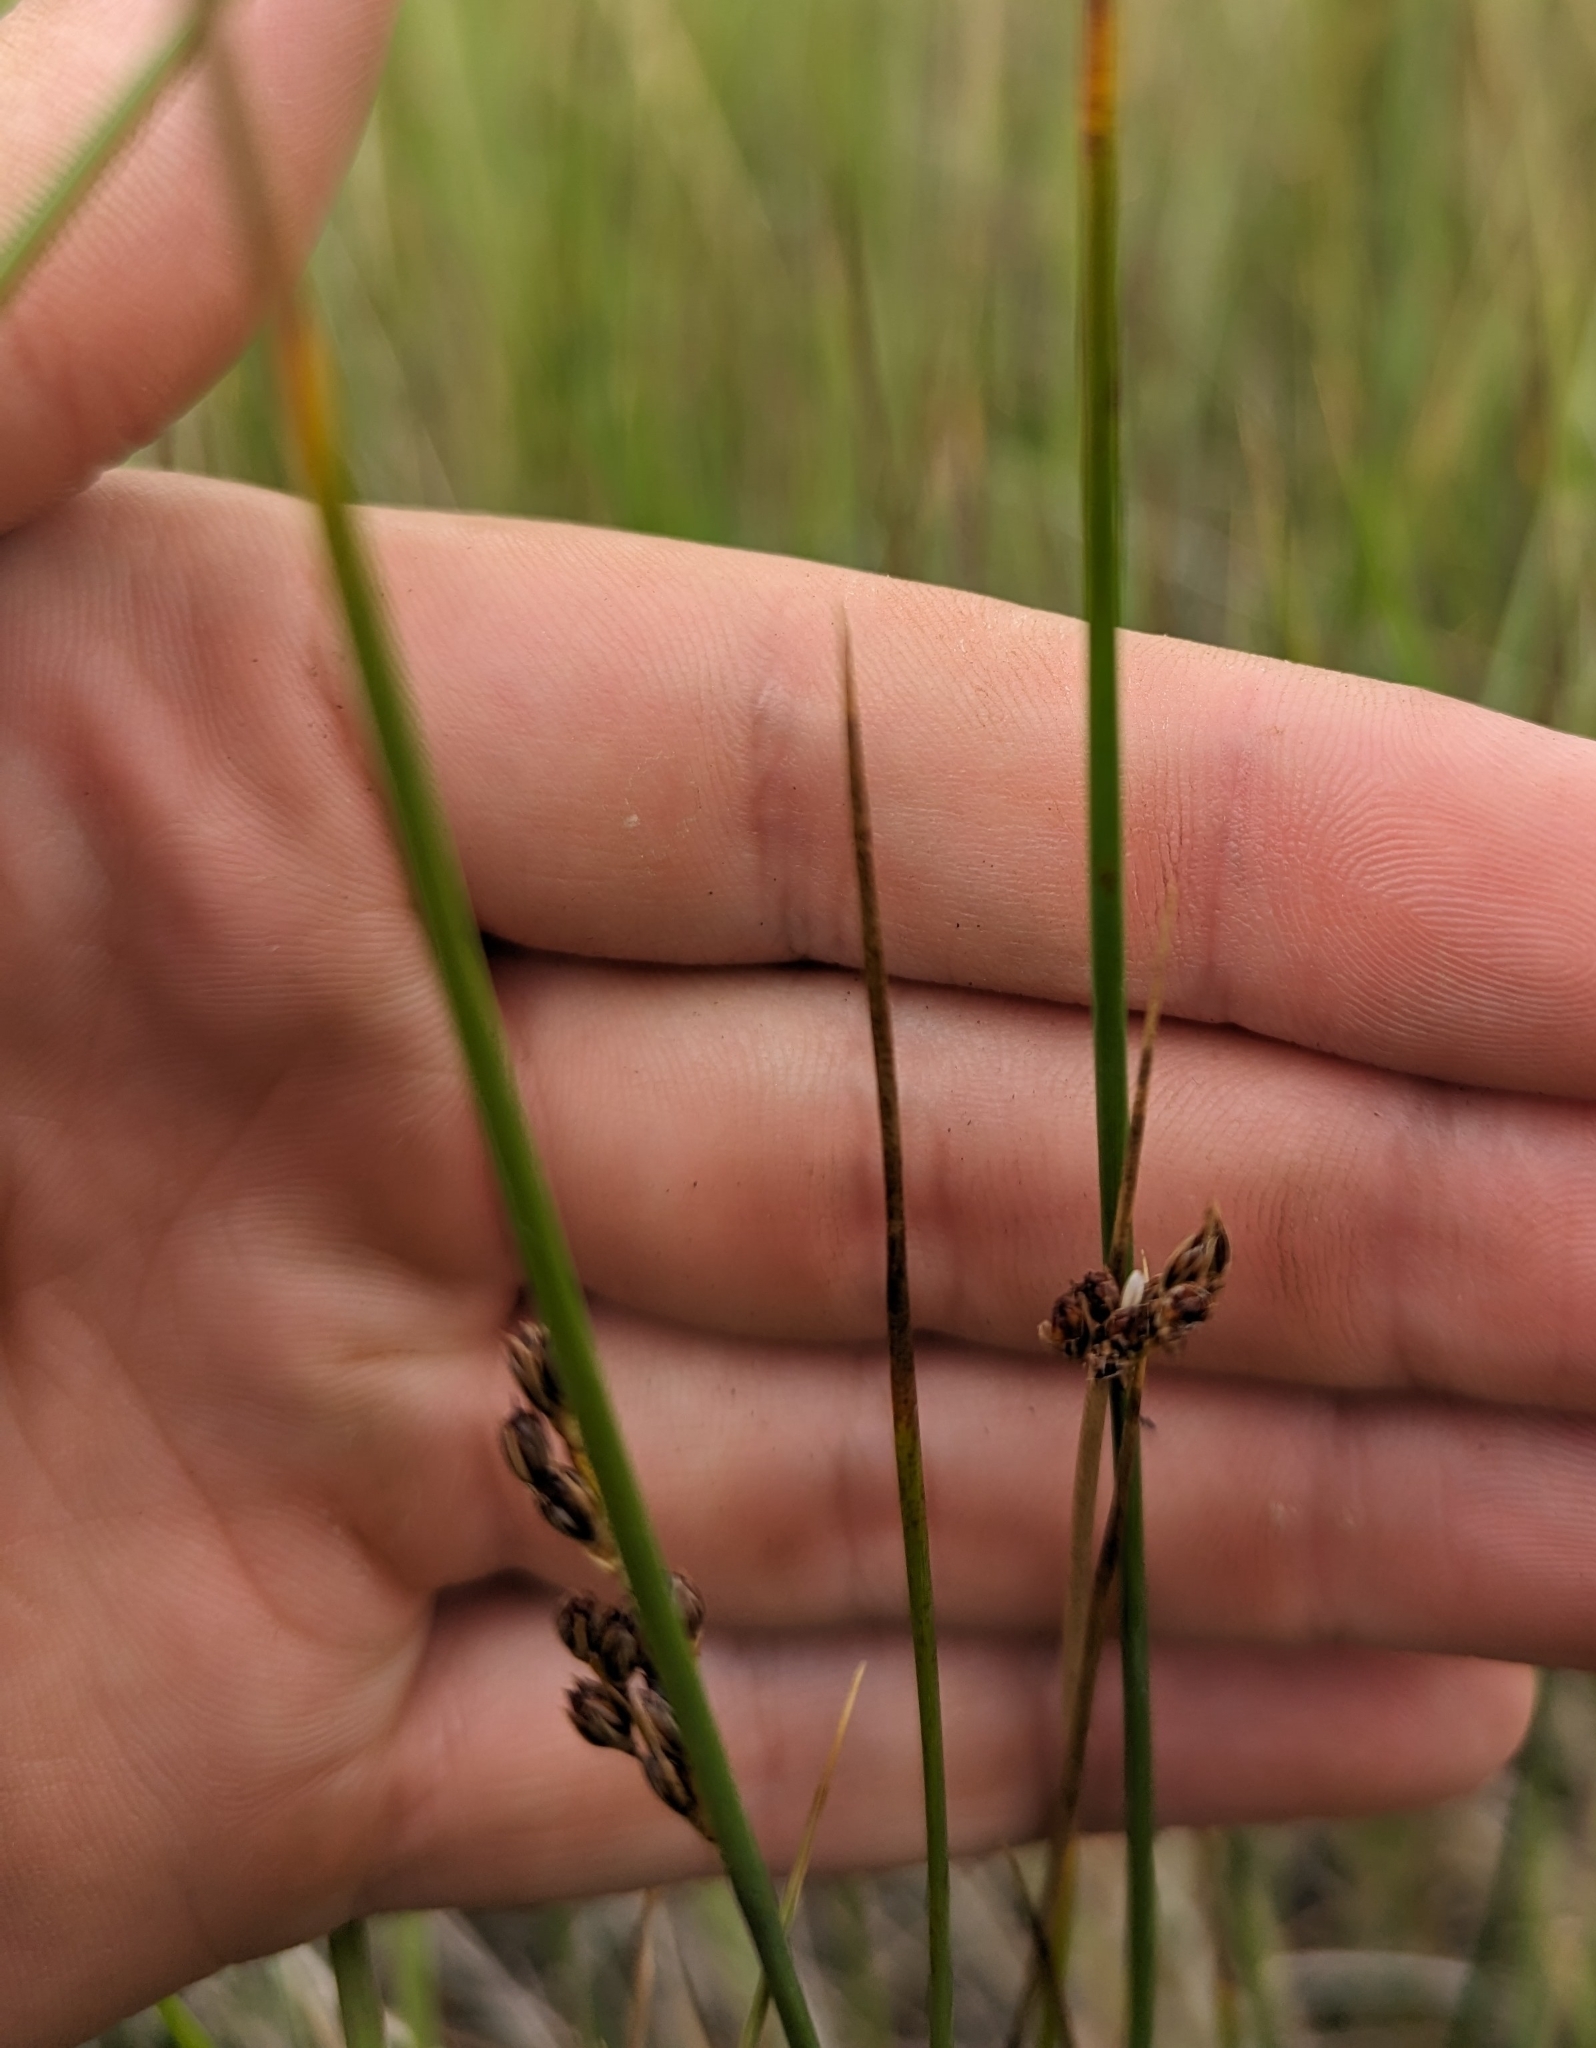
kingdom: Plantae
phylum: Tracheophyta
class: Liliopsida
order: Poales
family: Juncaceae
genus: Juncus
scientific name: Juncus balticus
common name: Baltic rush
